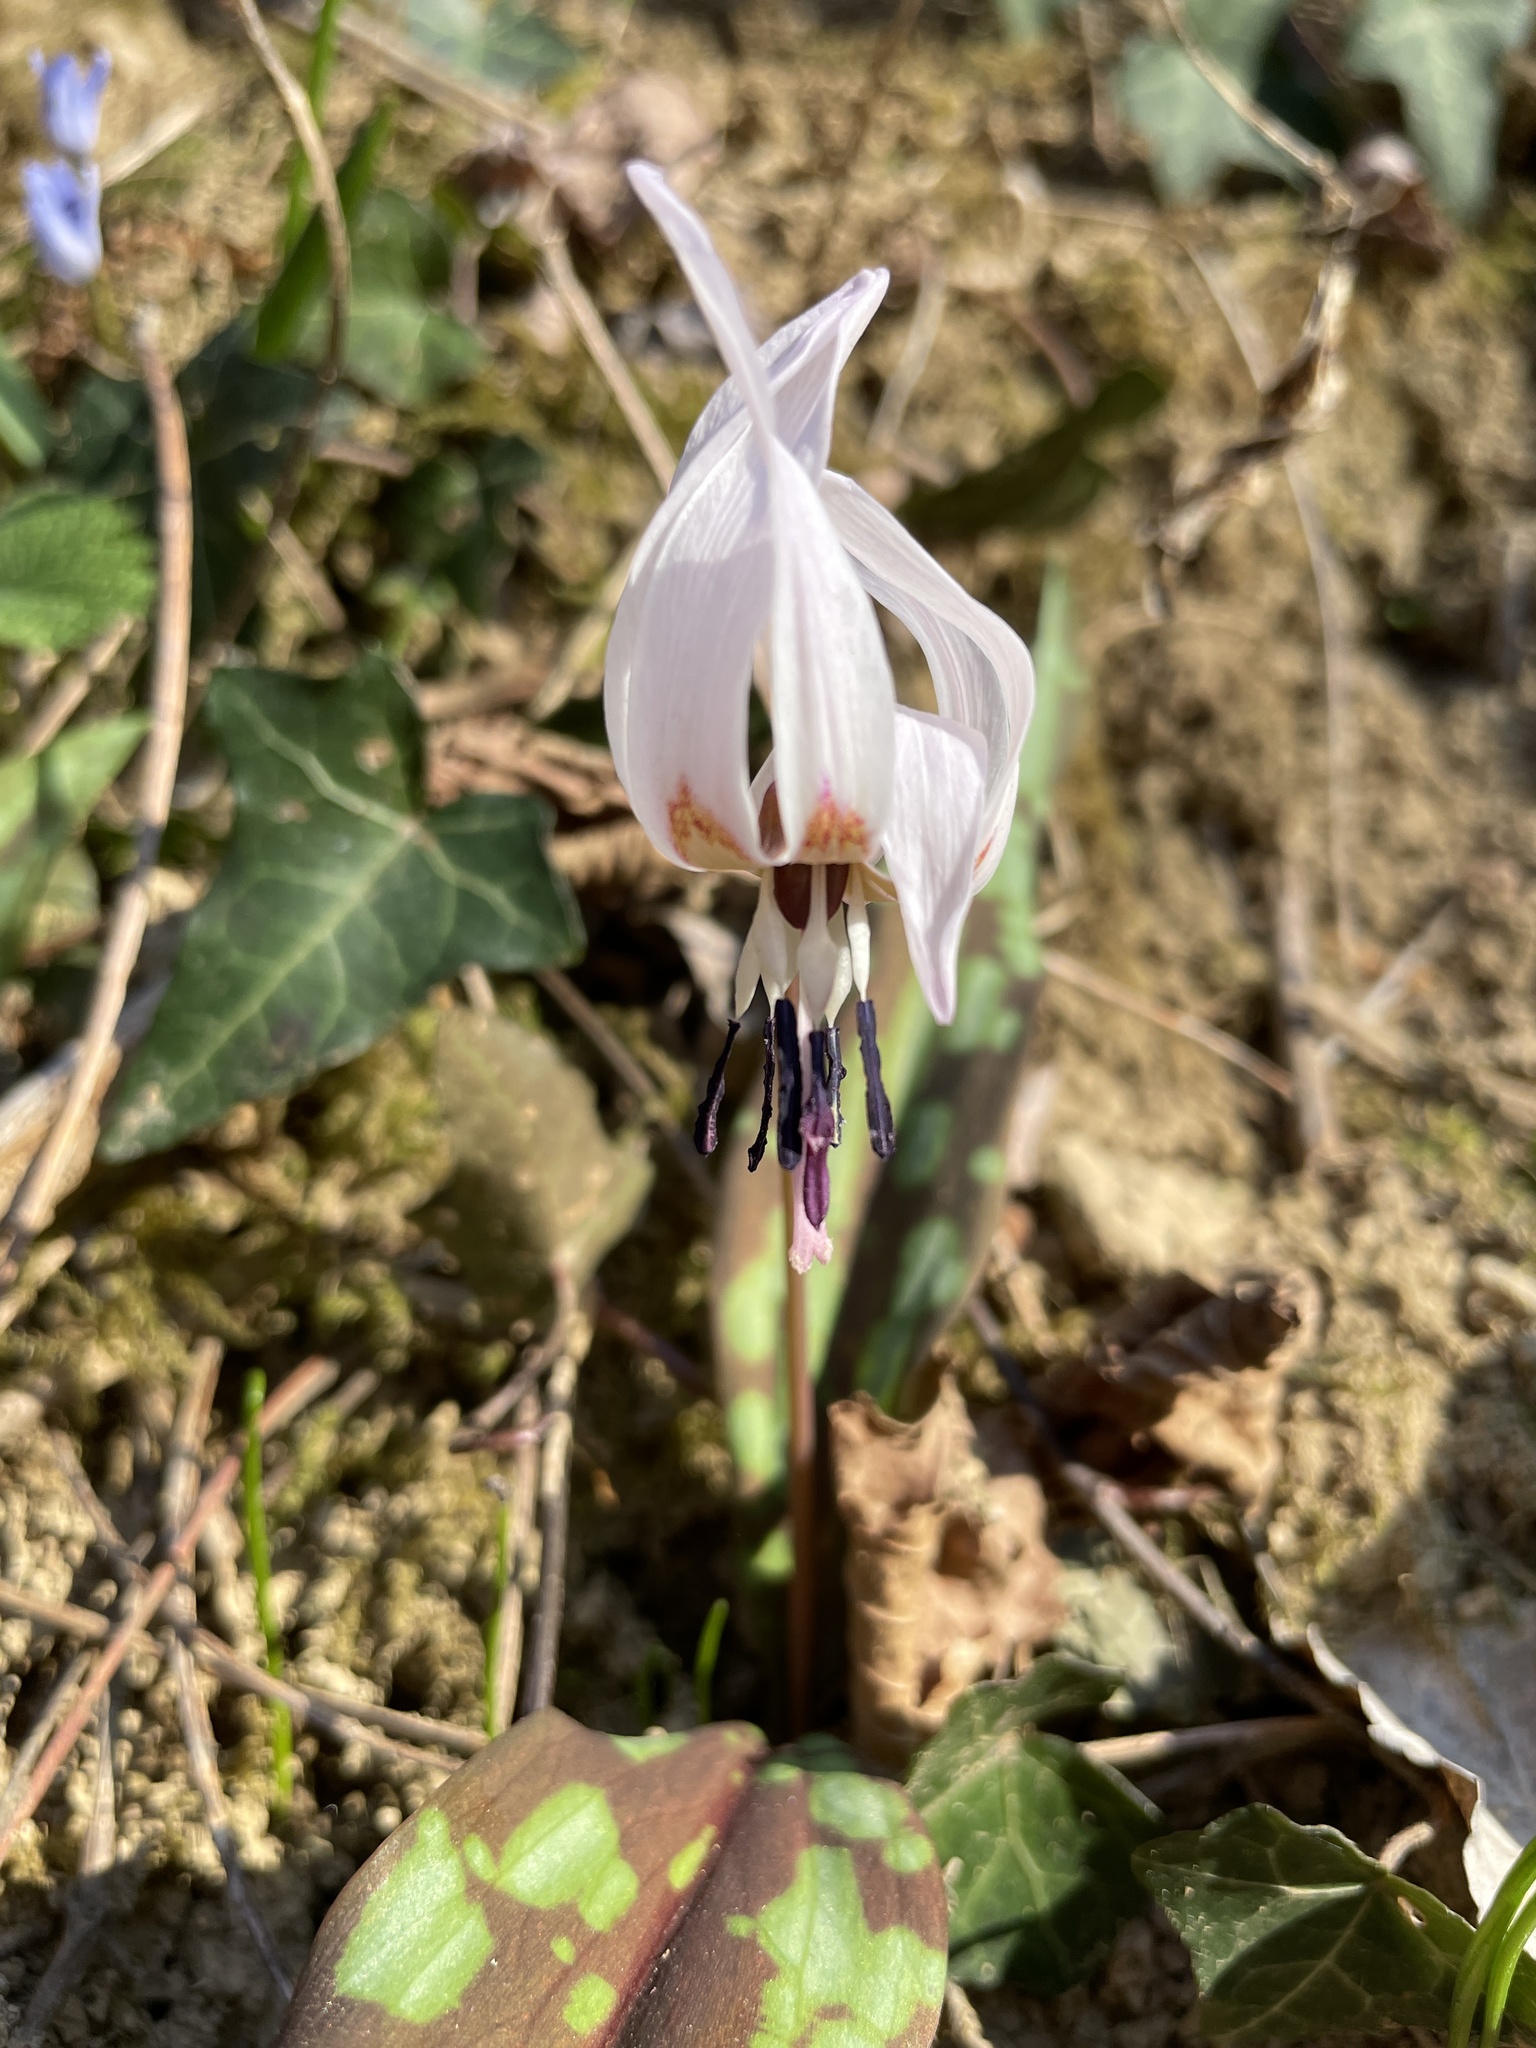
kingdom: Plantae
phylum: Tracheophyta
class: Liliopsida
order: Liliales
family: Liliaceae
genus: Erythronium
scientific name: Erythronium dens-canis
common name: Dog's-tooth-violet
